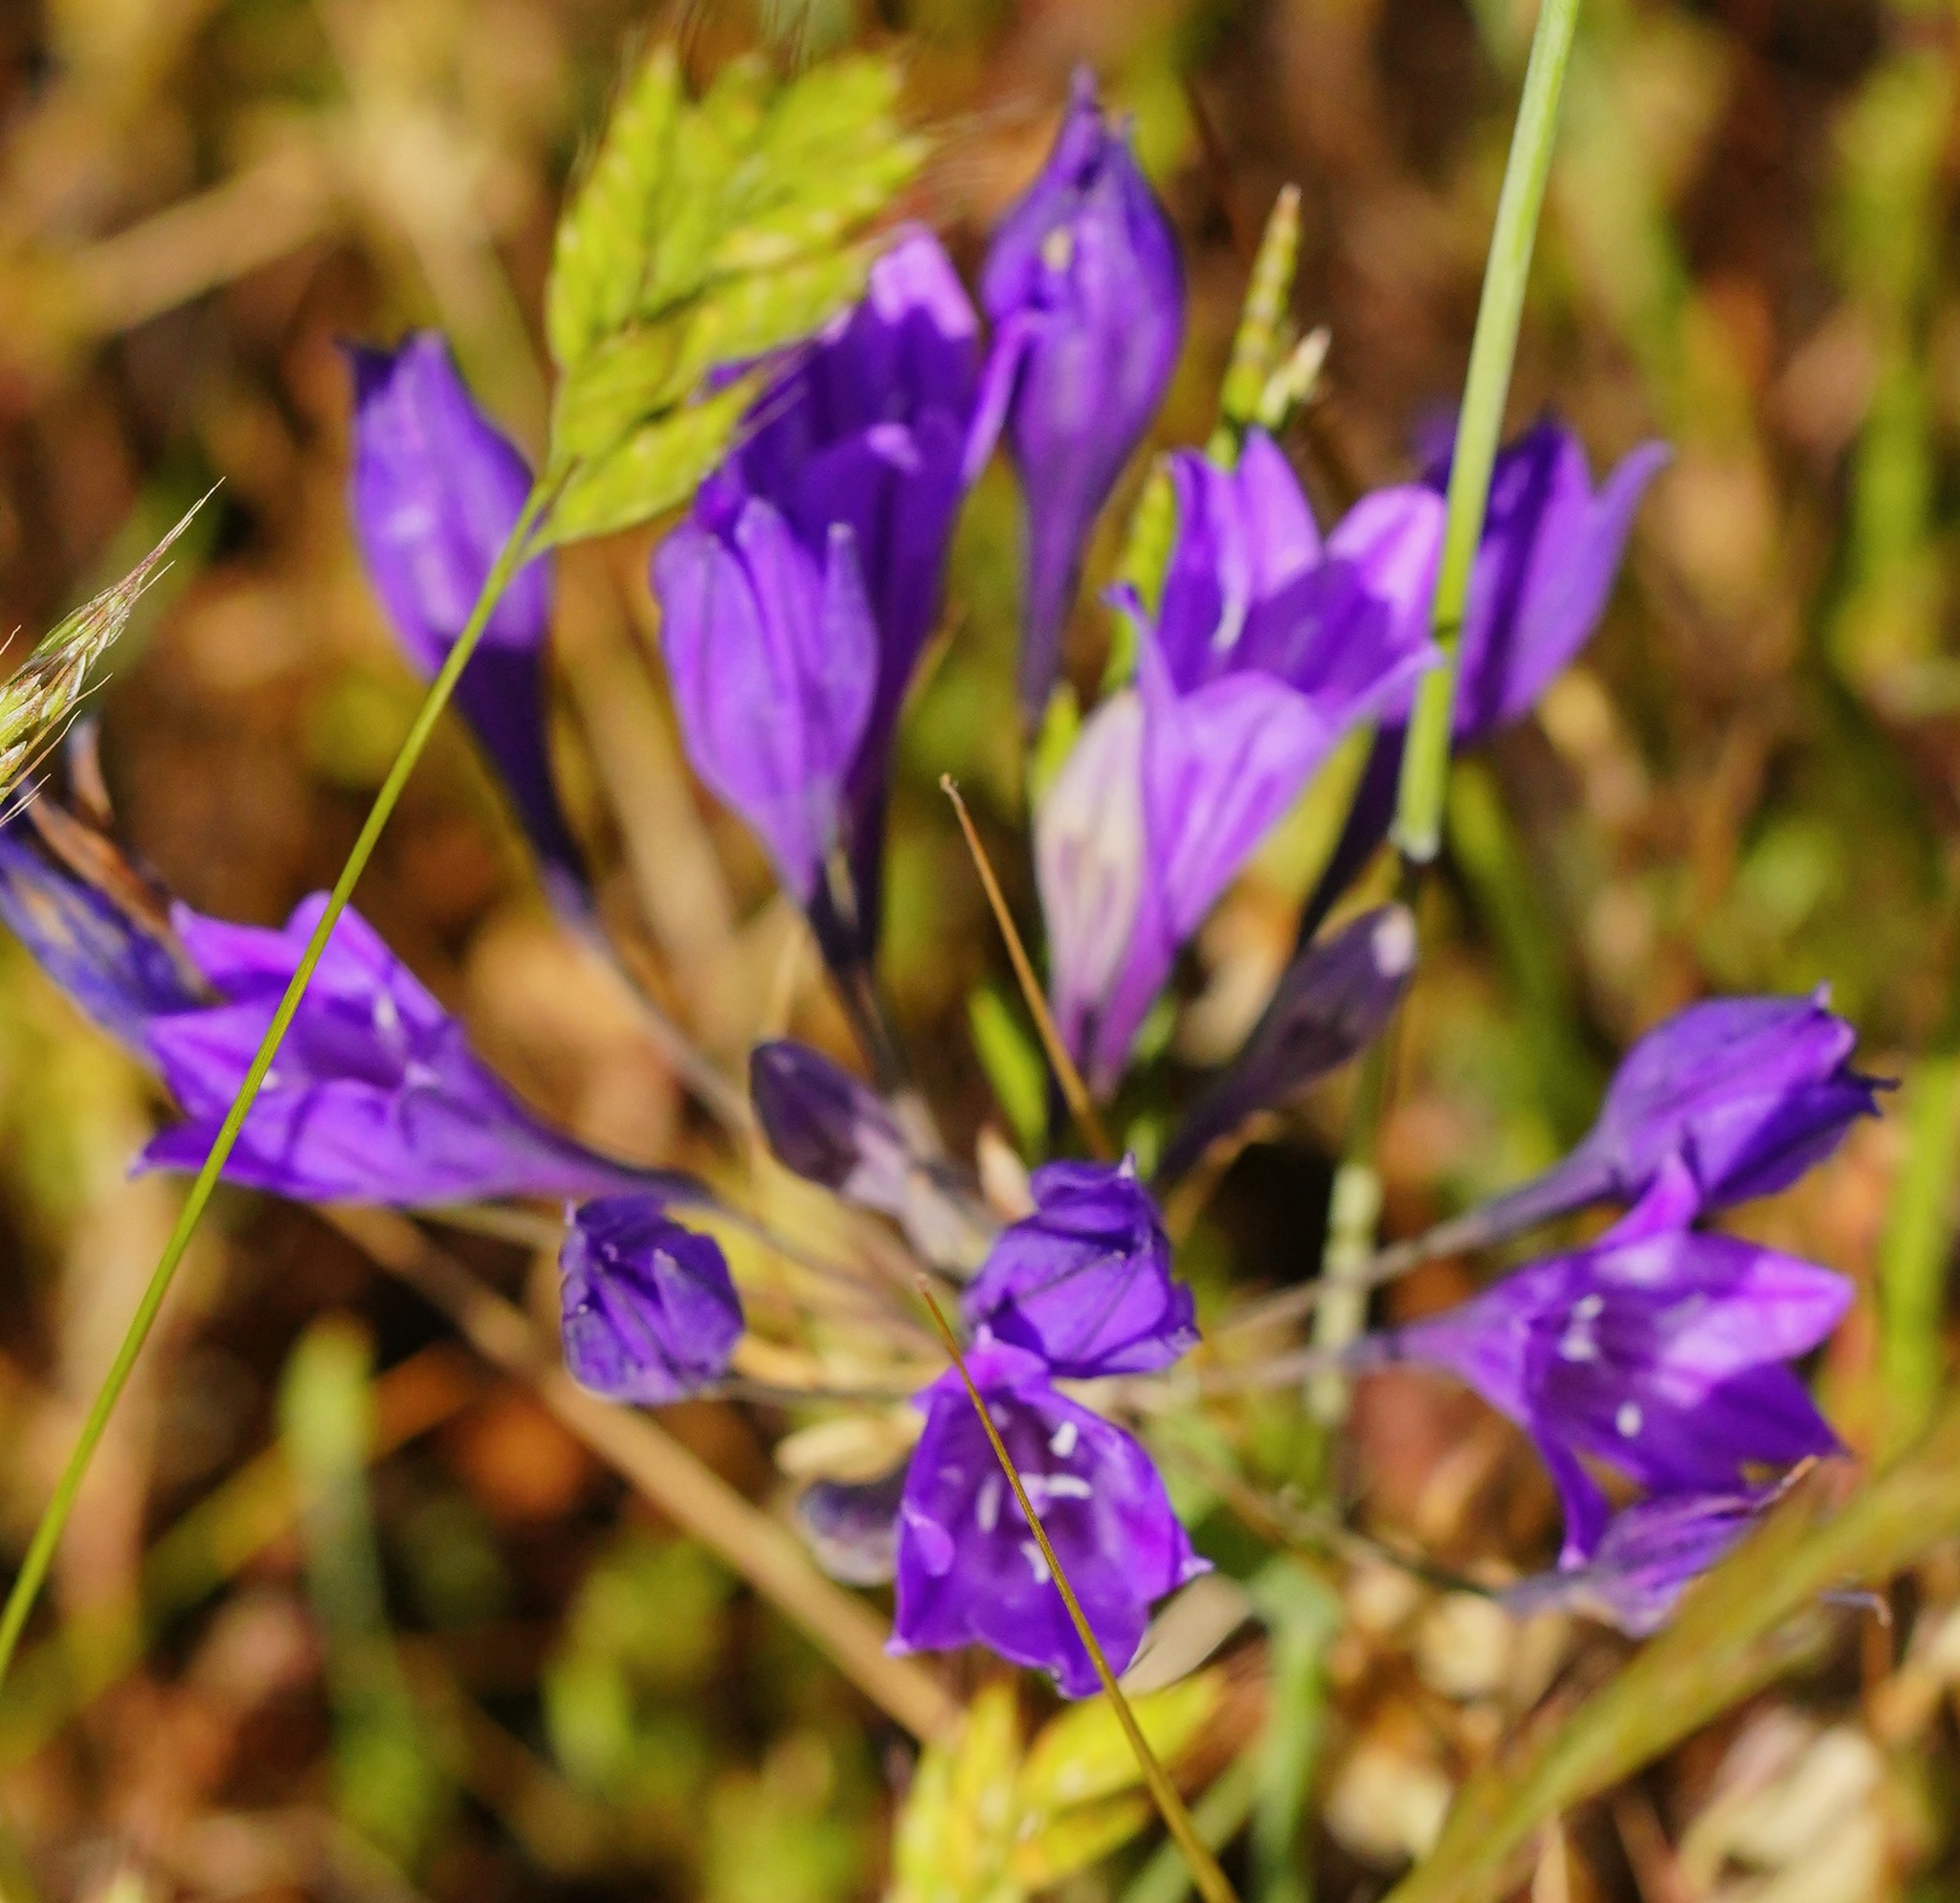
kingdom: Plantae
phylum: Tracheophyta
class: Liliopsida
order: Asparagales
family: Asparagaceae
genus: Triteleia
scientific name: Triteleia laxa
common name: Triplet-lily
